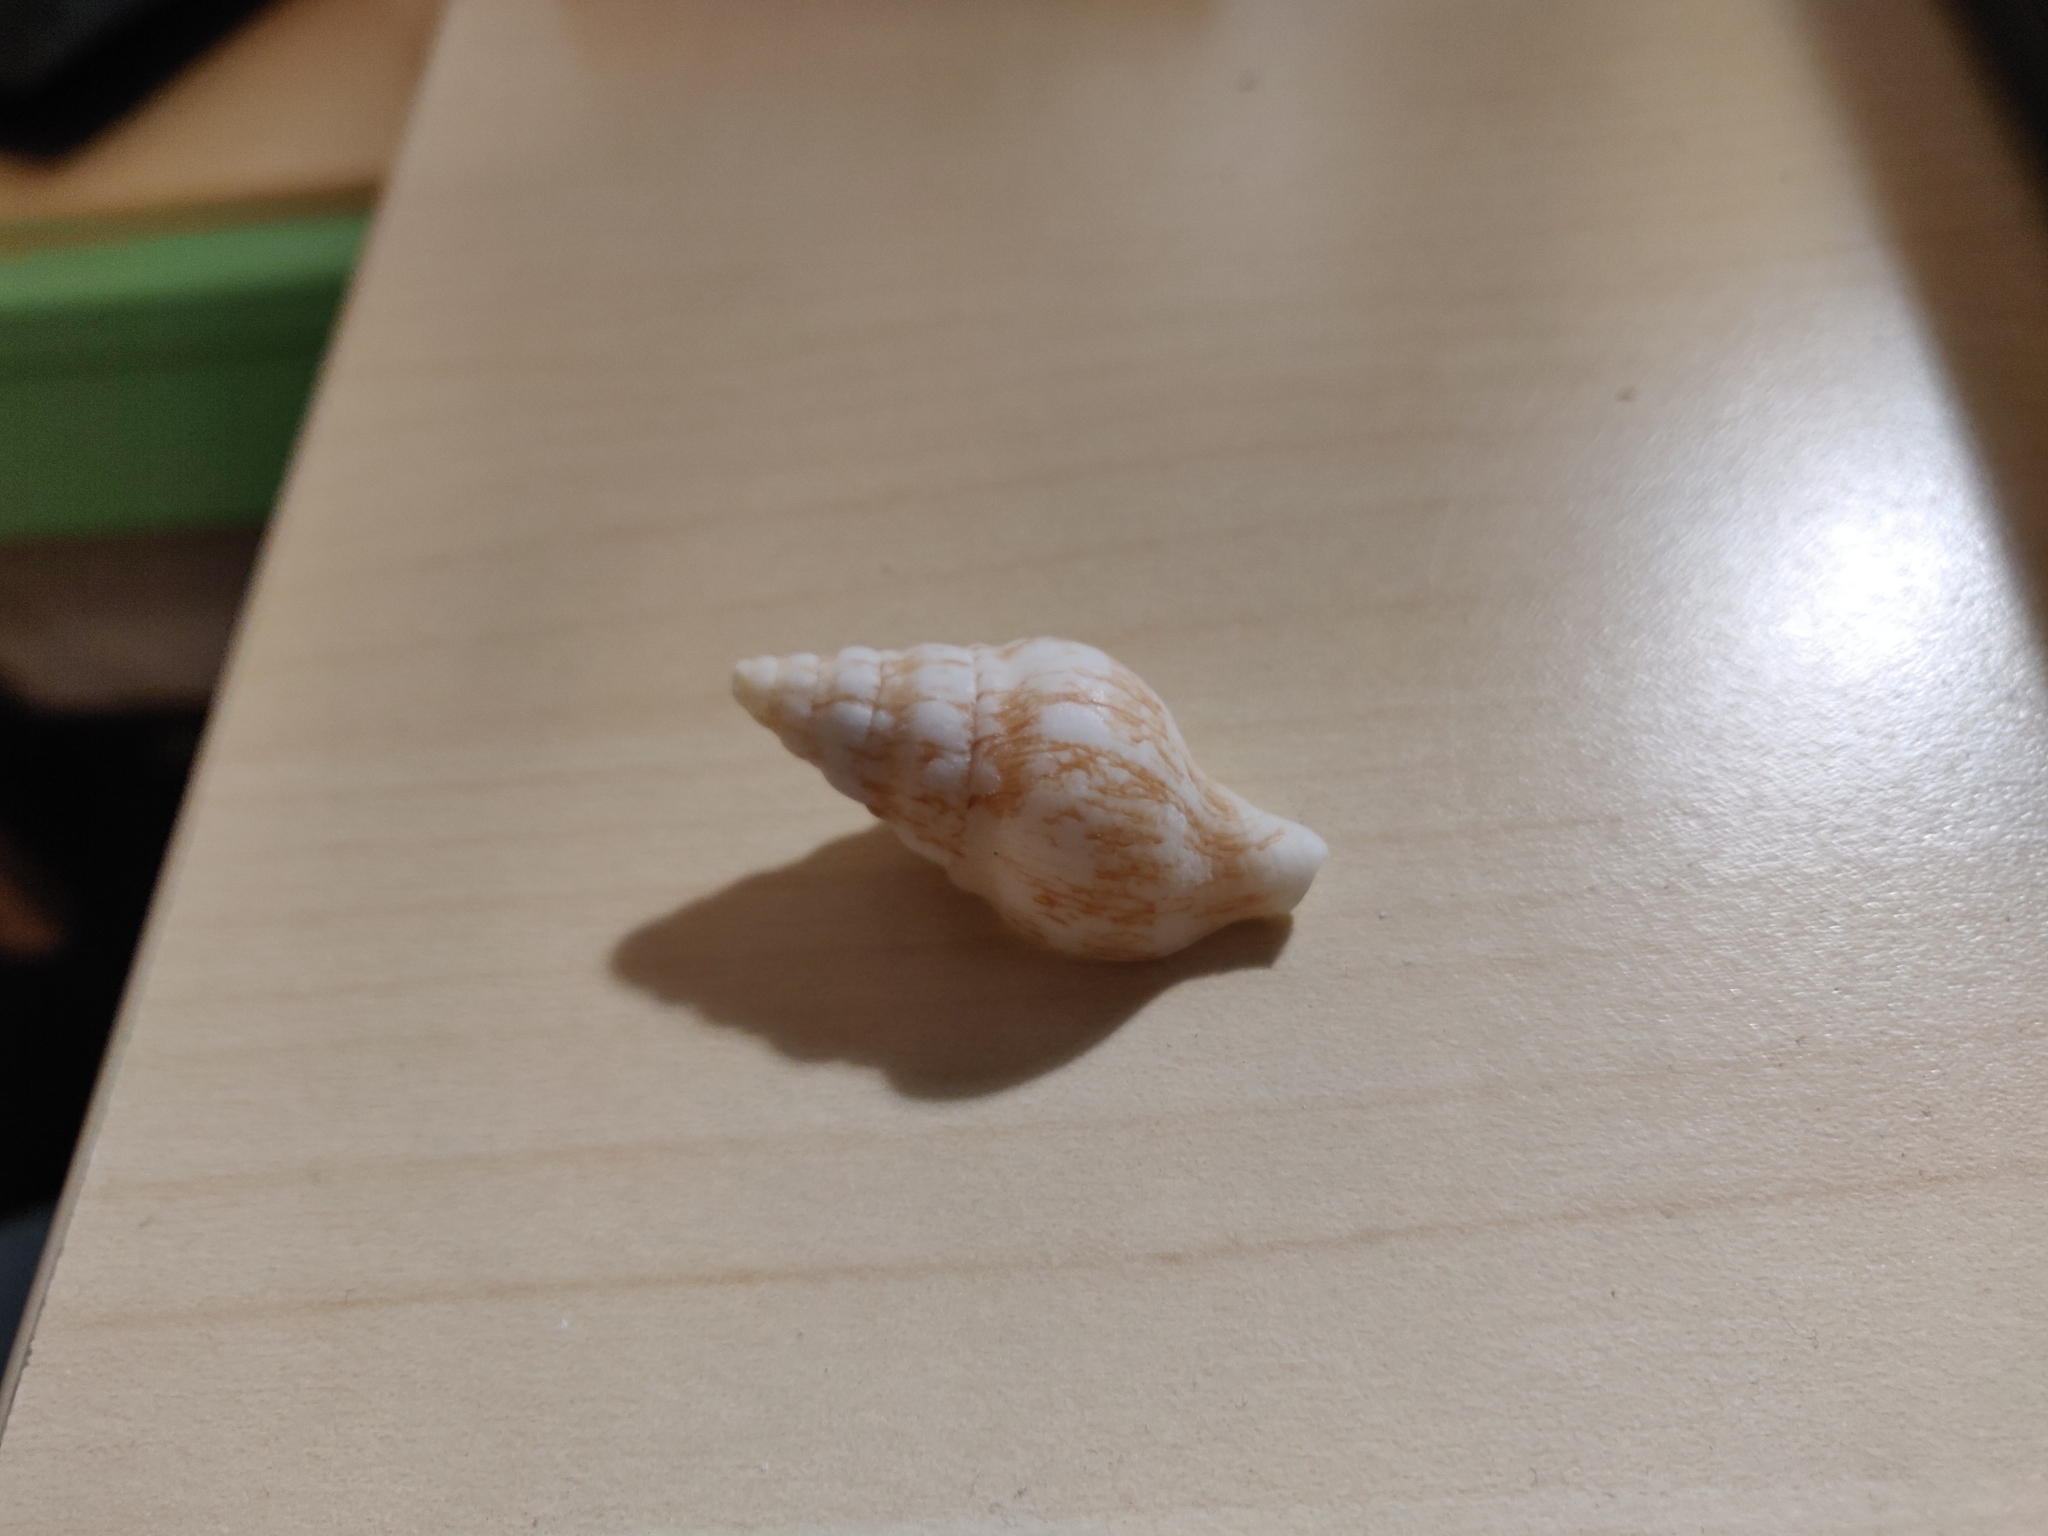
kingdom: Animalia
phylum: Mollusca
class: Gastropoda
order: Neogastropoda
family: Tudiclidae
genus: Euthria
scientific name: Euthria cornea
